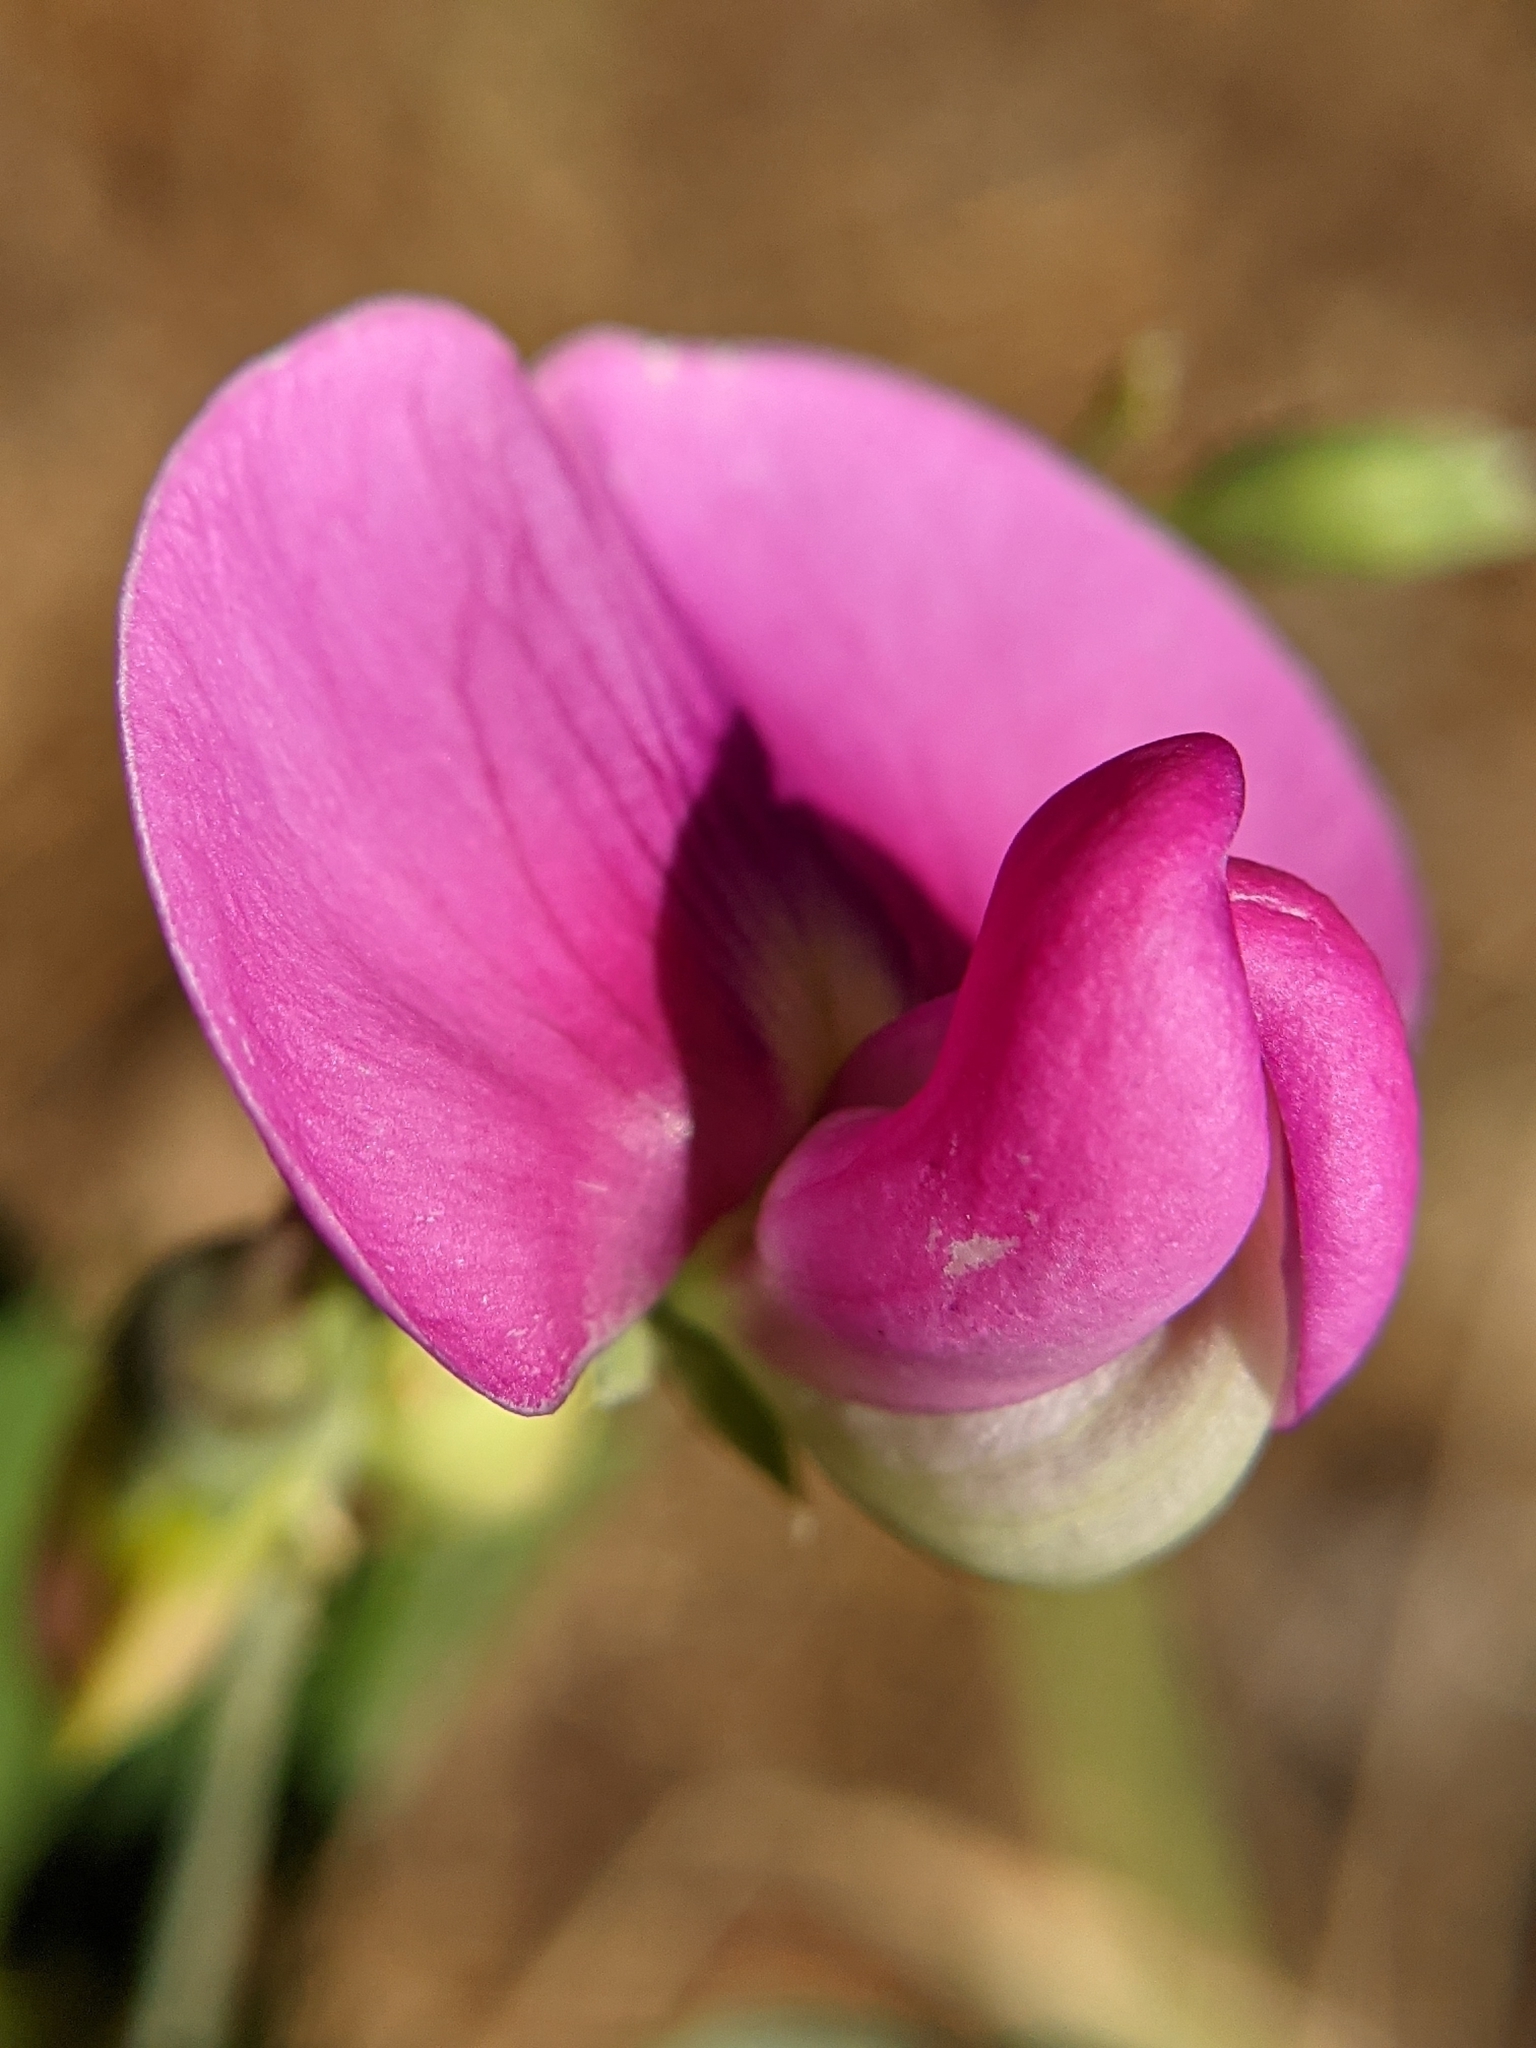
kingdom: Plantae
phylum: Tracheophyta
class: Magnoliopsida
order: Fabales
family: Fabaceae
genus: Lathyrus
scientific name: Lathyrus latifolius
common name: Perennial pea
